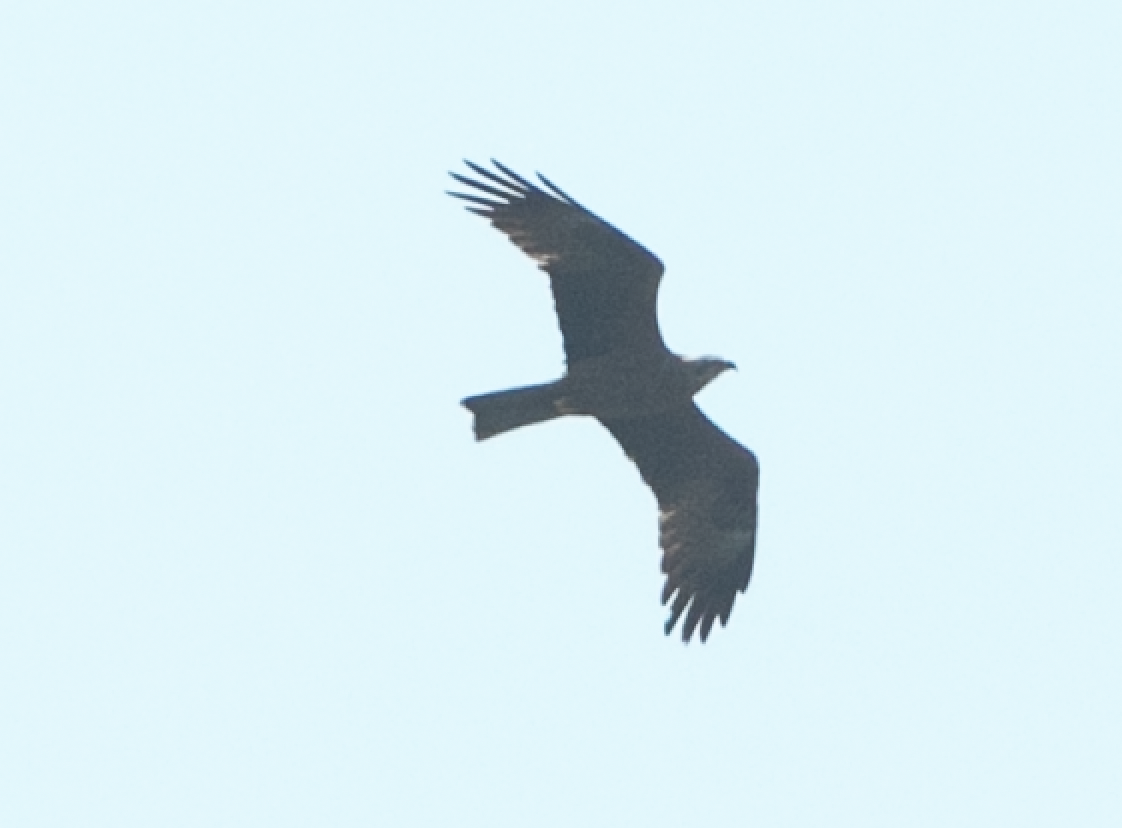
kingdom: Animalia
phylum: Chordata
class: Aves
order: Accipitriformes
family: Accipitridae
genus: Milvus
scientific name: Milvus migrans
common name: Black kite
